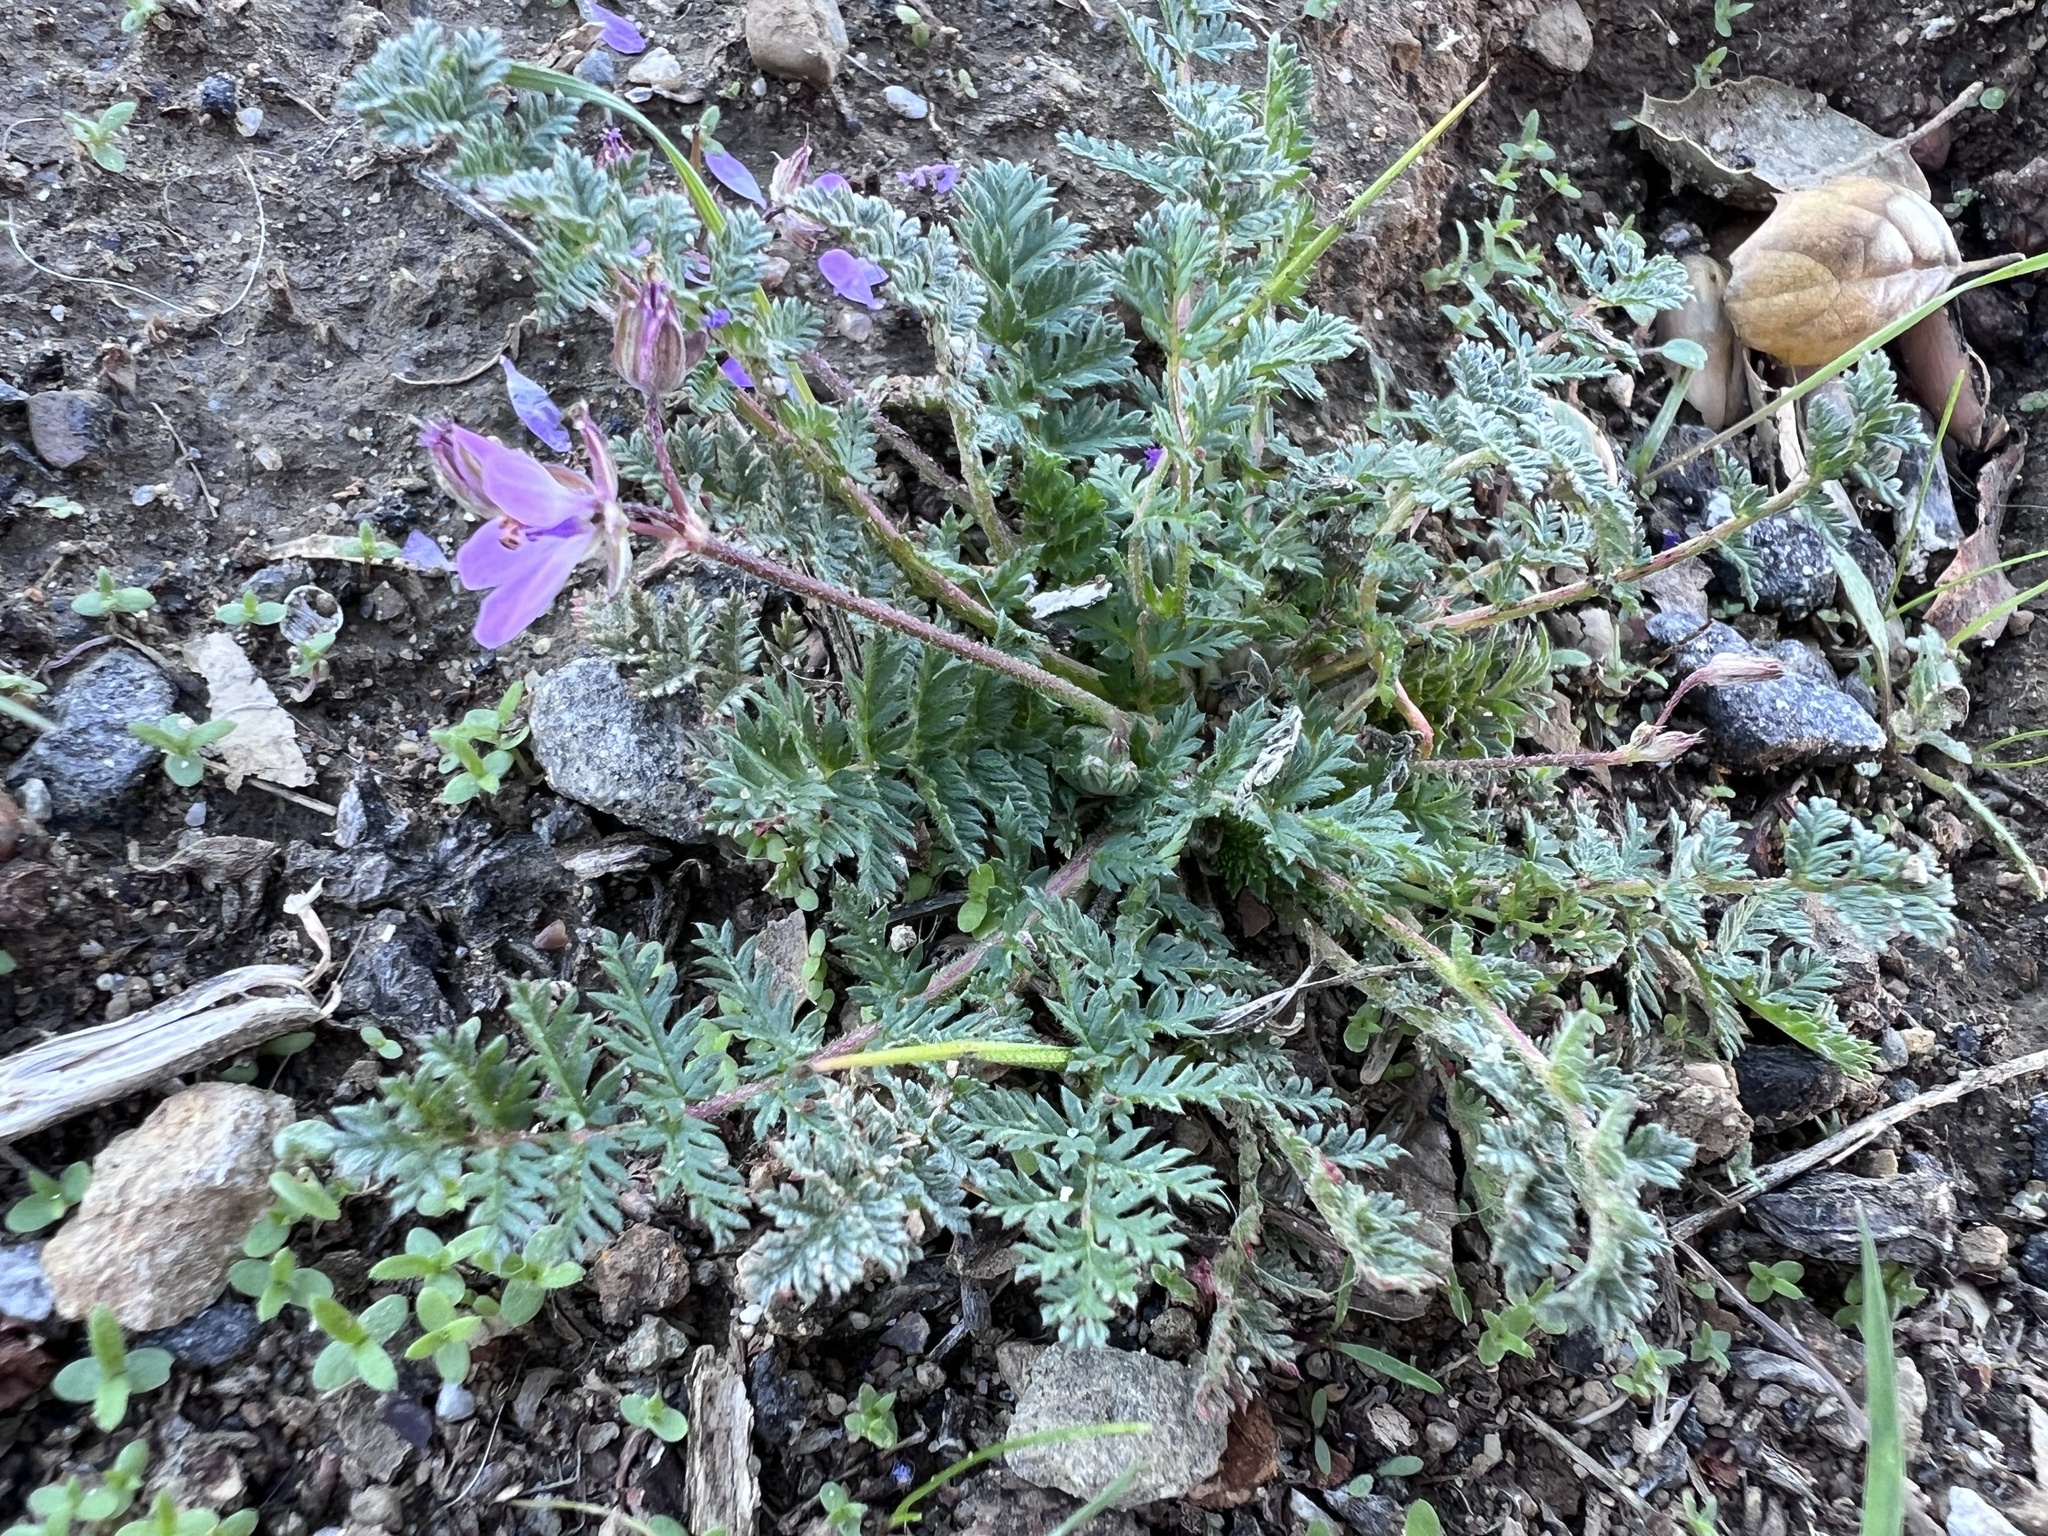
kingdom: Plantae
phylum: Tracheophyta
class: Magnoliopsida
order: Geraniales
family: Geraniaceae
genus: Erodium
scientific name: Erodium cicutarium
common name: Common stork's-bill
